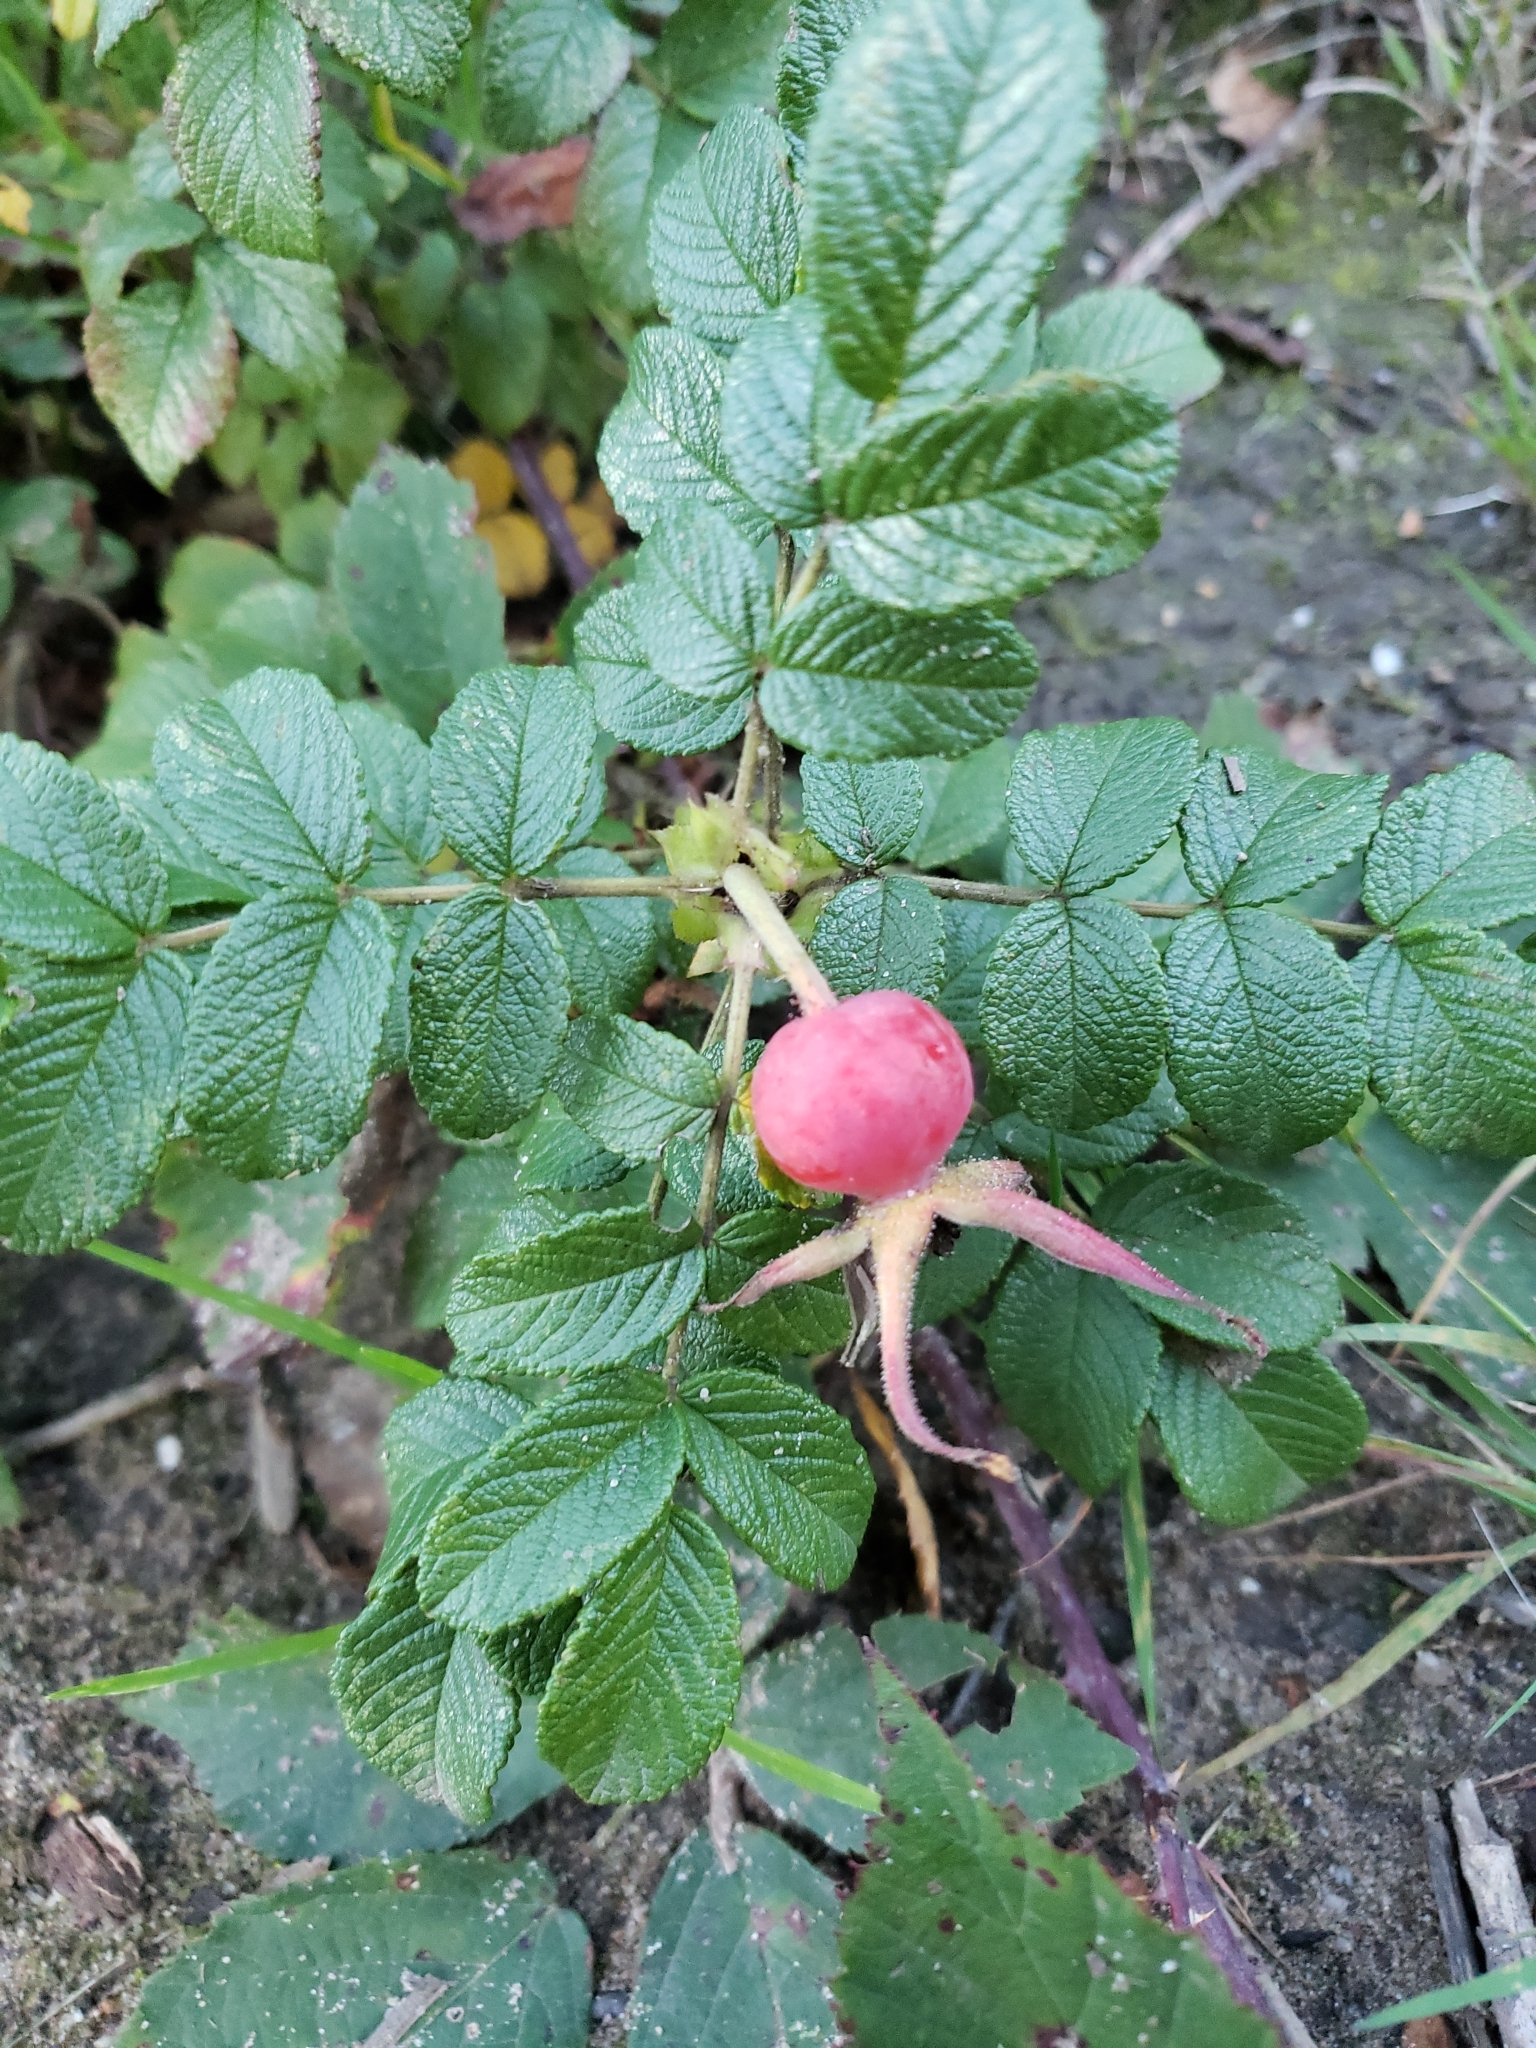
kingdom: Plantae
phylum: Tracheophyta
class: Magnoliopsida
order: Rosales
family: Rosaceae
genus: Rosa
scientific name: Rosa rugosa
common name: Japanese rose
